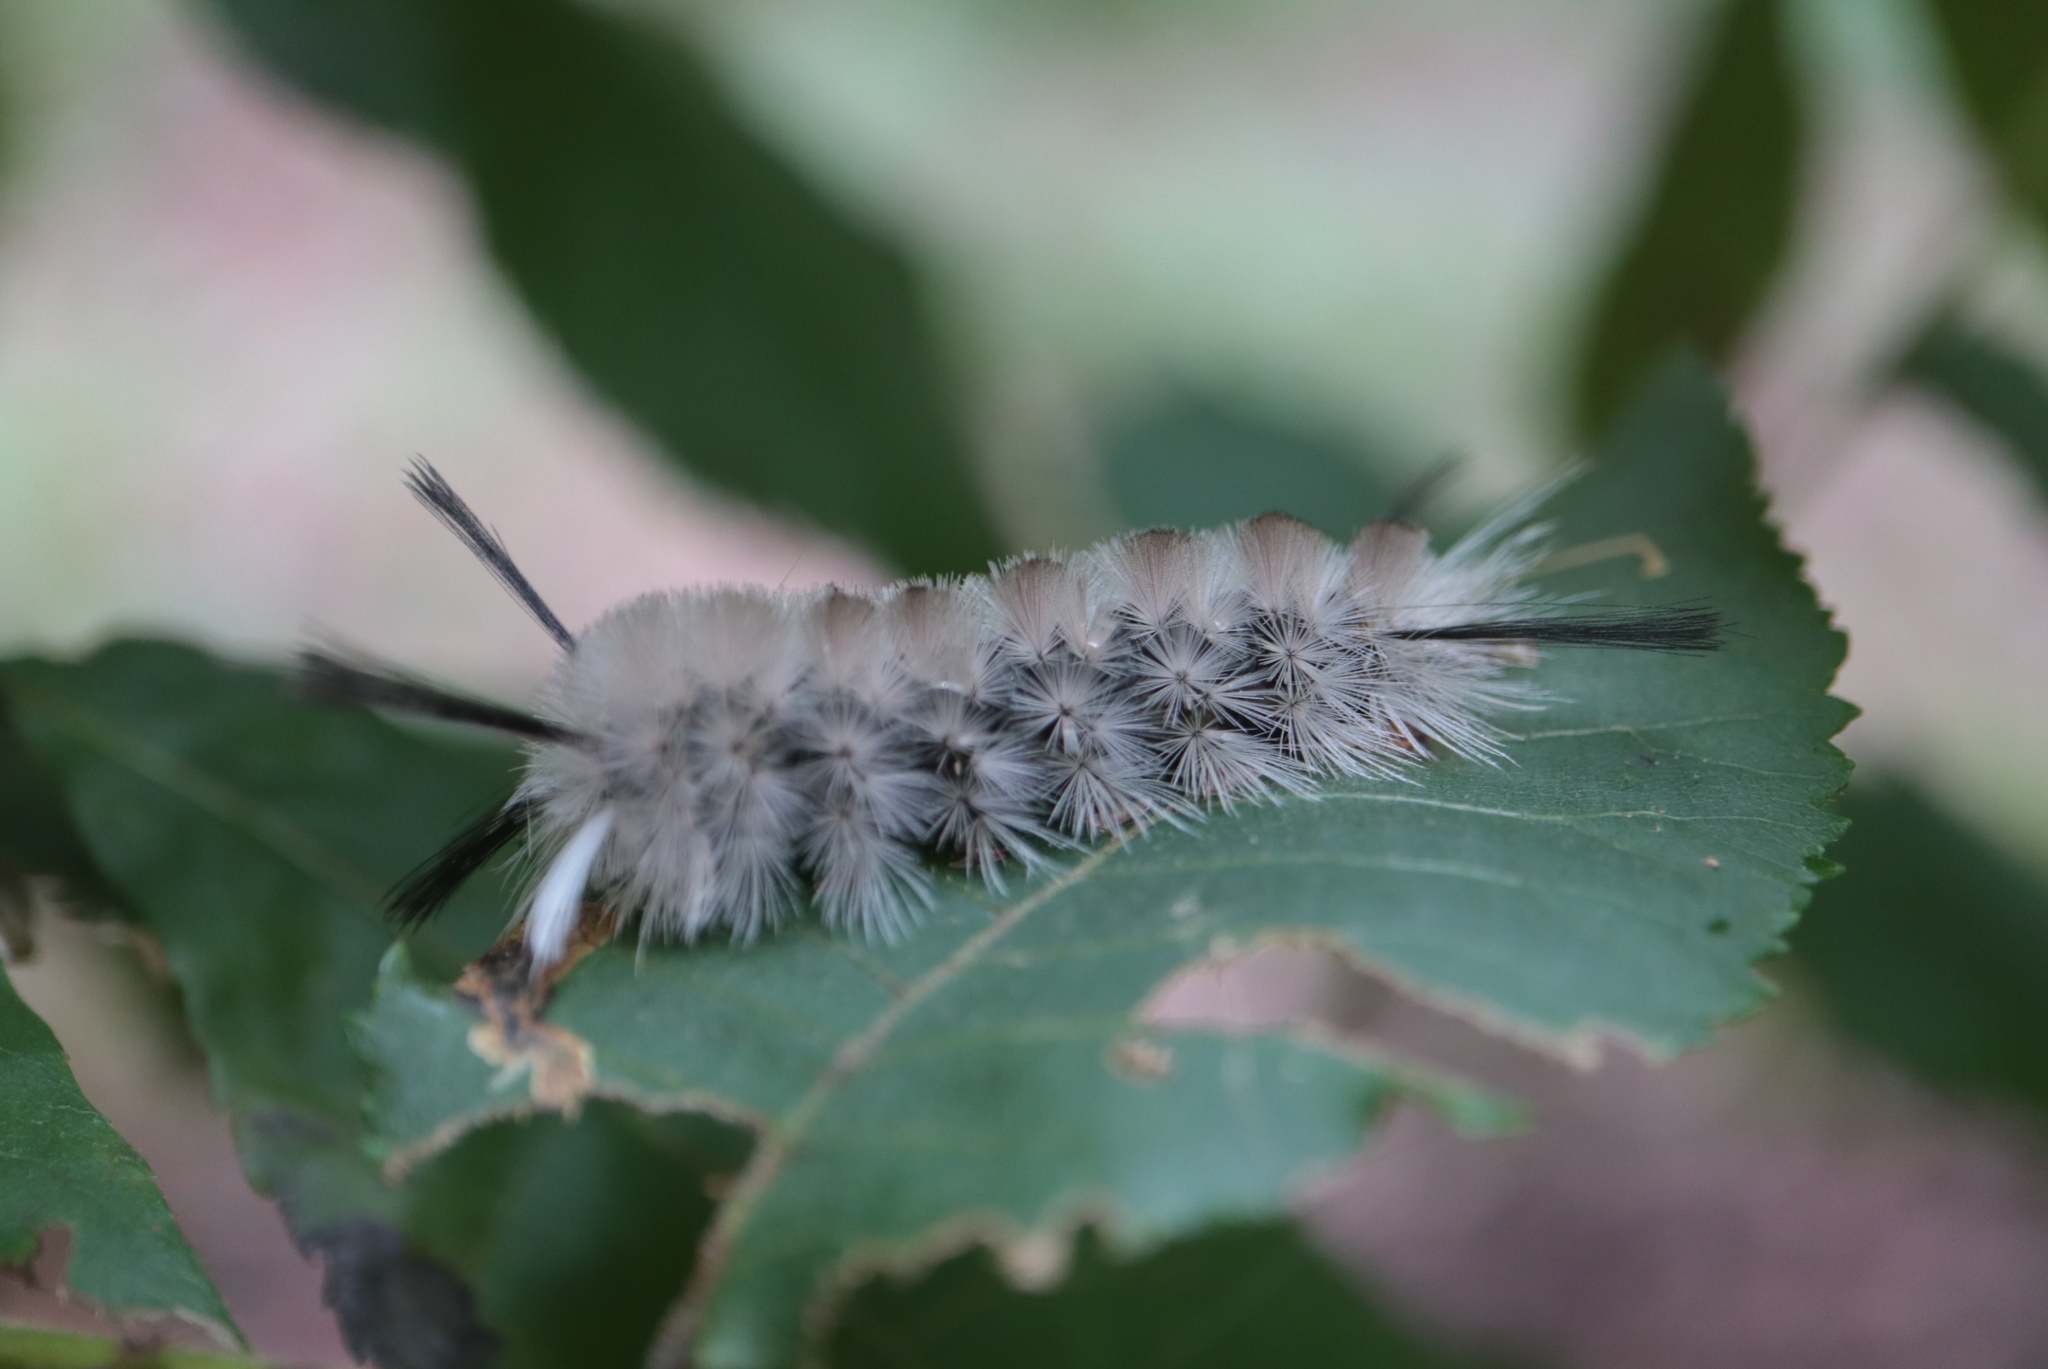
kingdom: Animalia
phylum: Arthropoda
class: Insecta
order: Lepidoptera
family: Erebidae
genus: Halysidota
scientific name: Halysidota tessellaris
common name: Banded tussock moth
